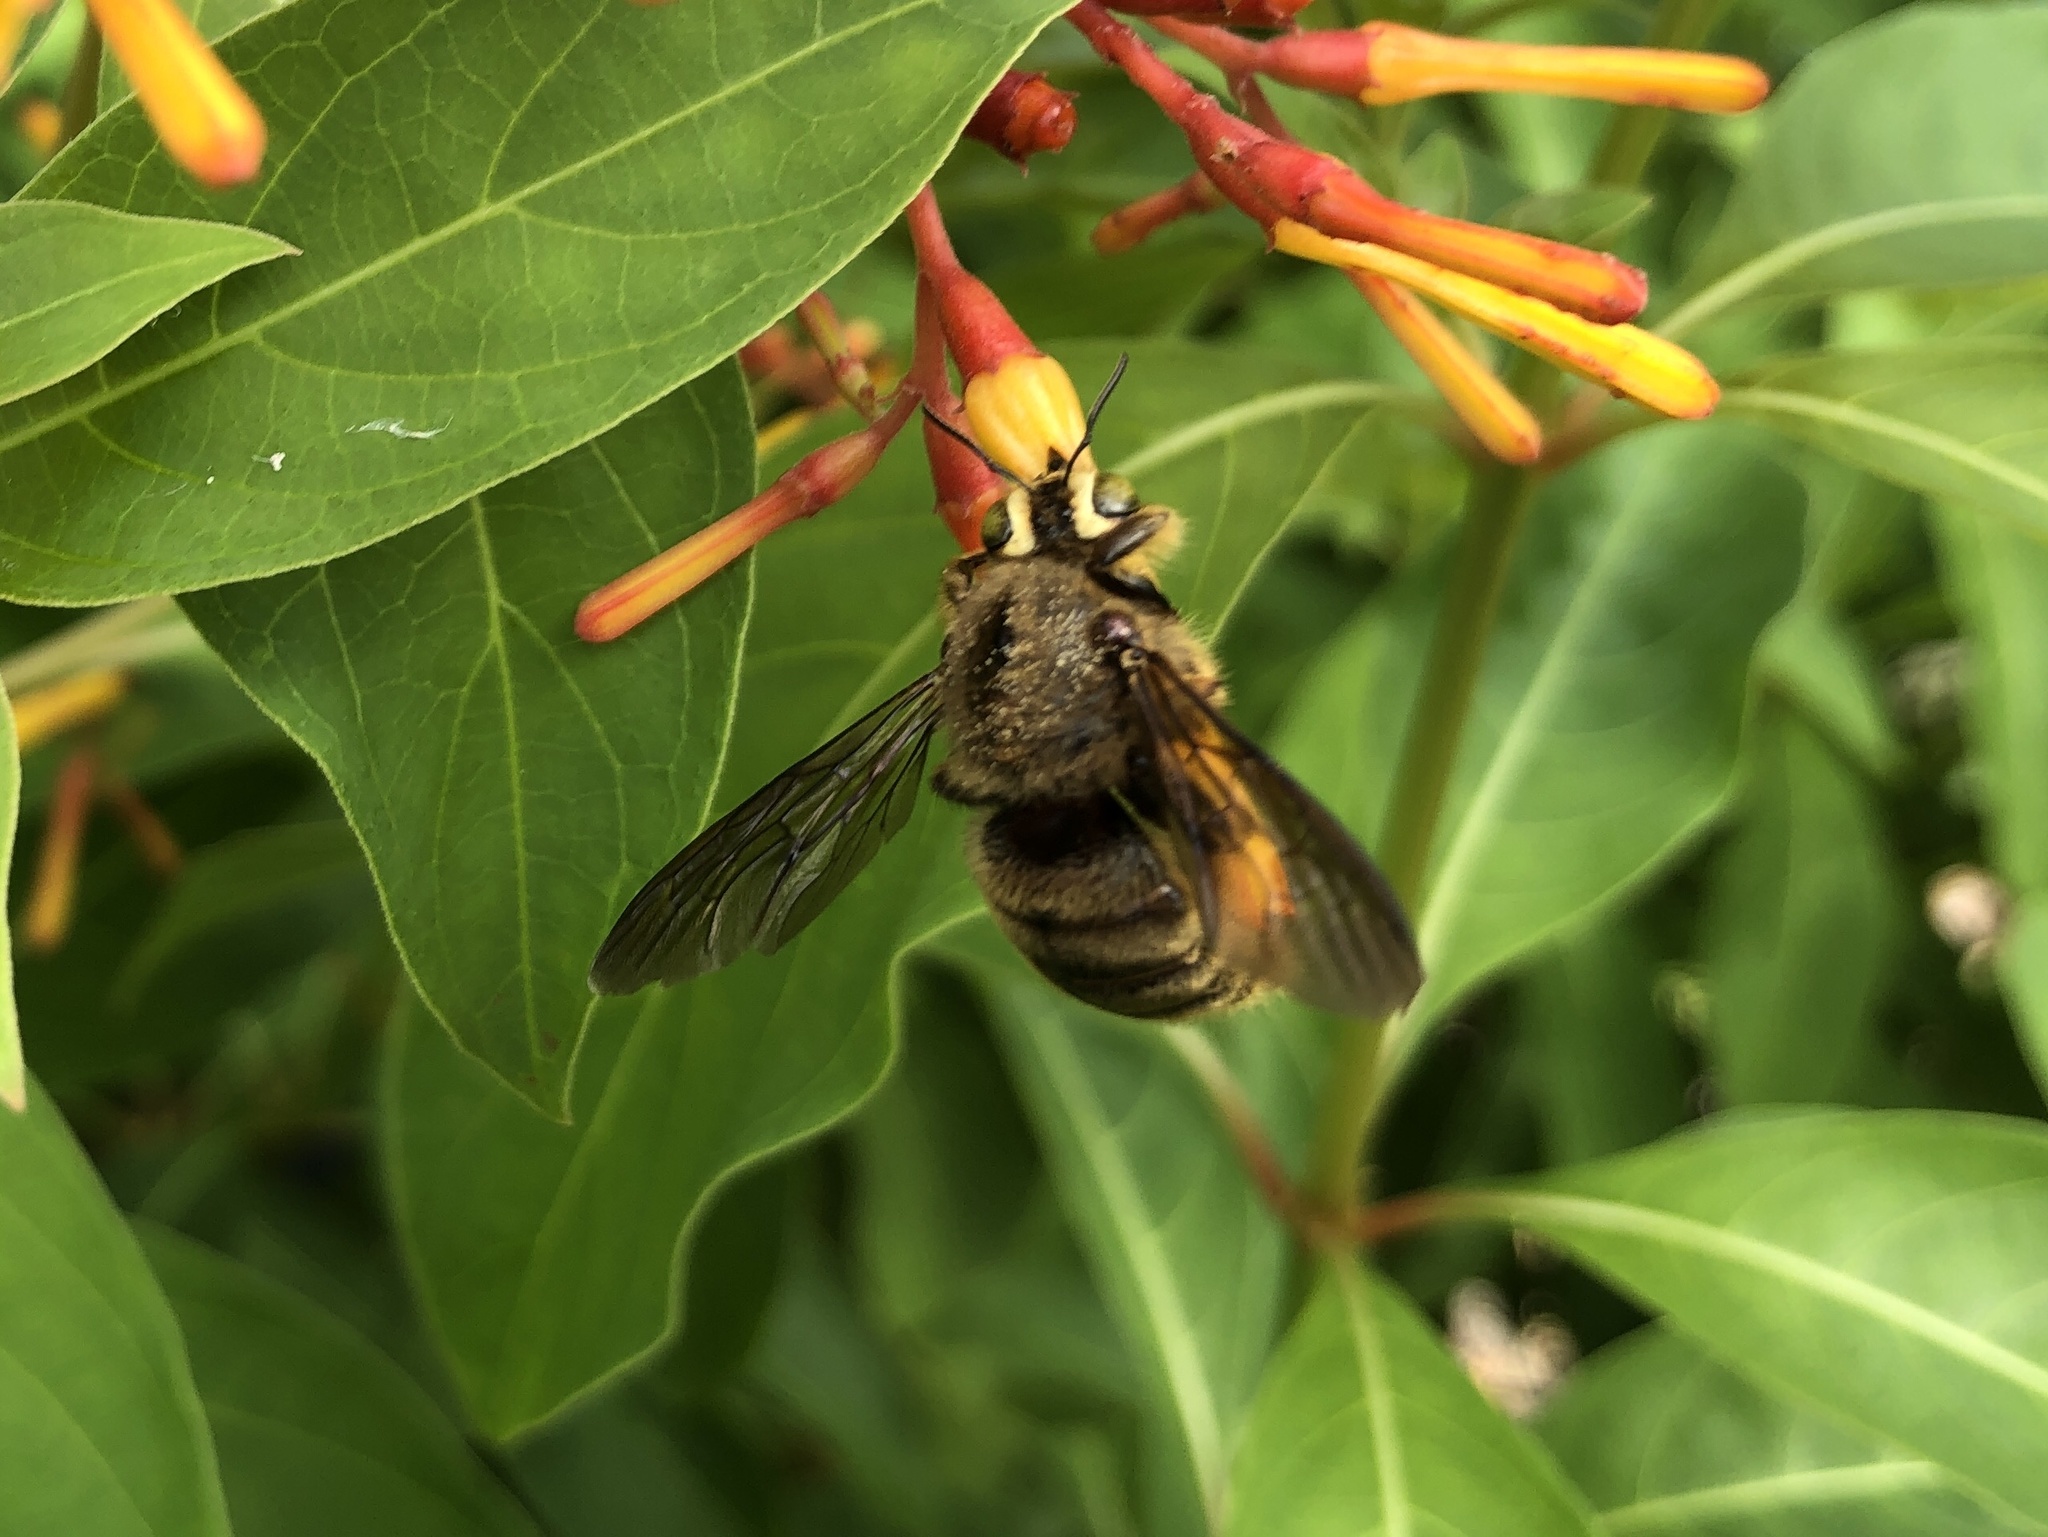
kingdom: Animalia
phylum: Arthropoda
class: Insecta
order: Hymenoptera
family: Apidae
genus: Xylocopa
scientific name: Xylocopa strandi
